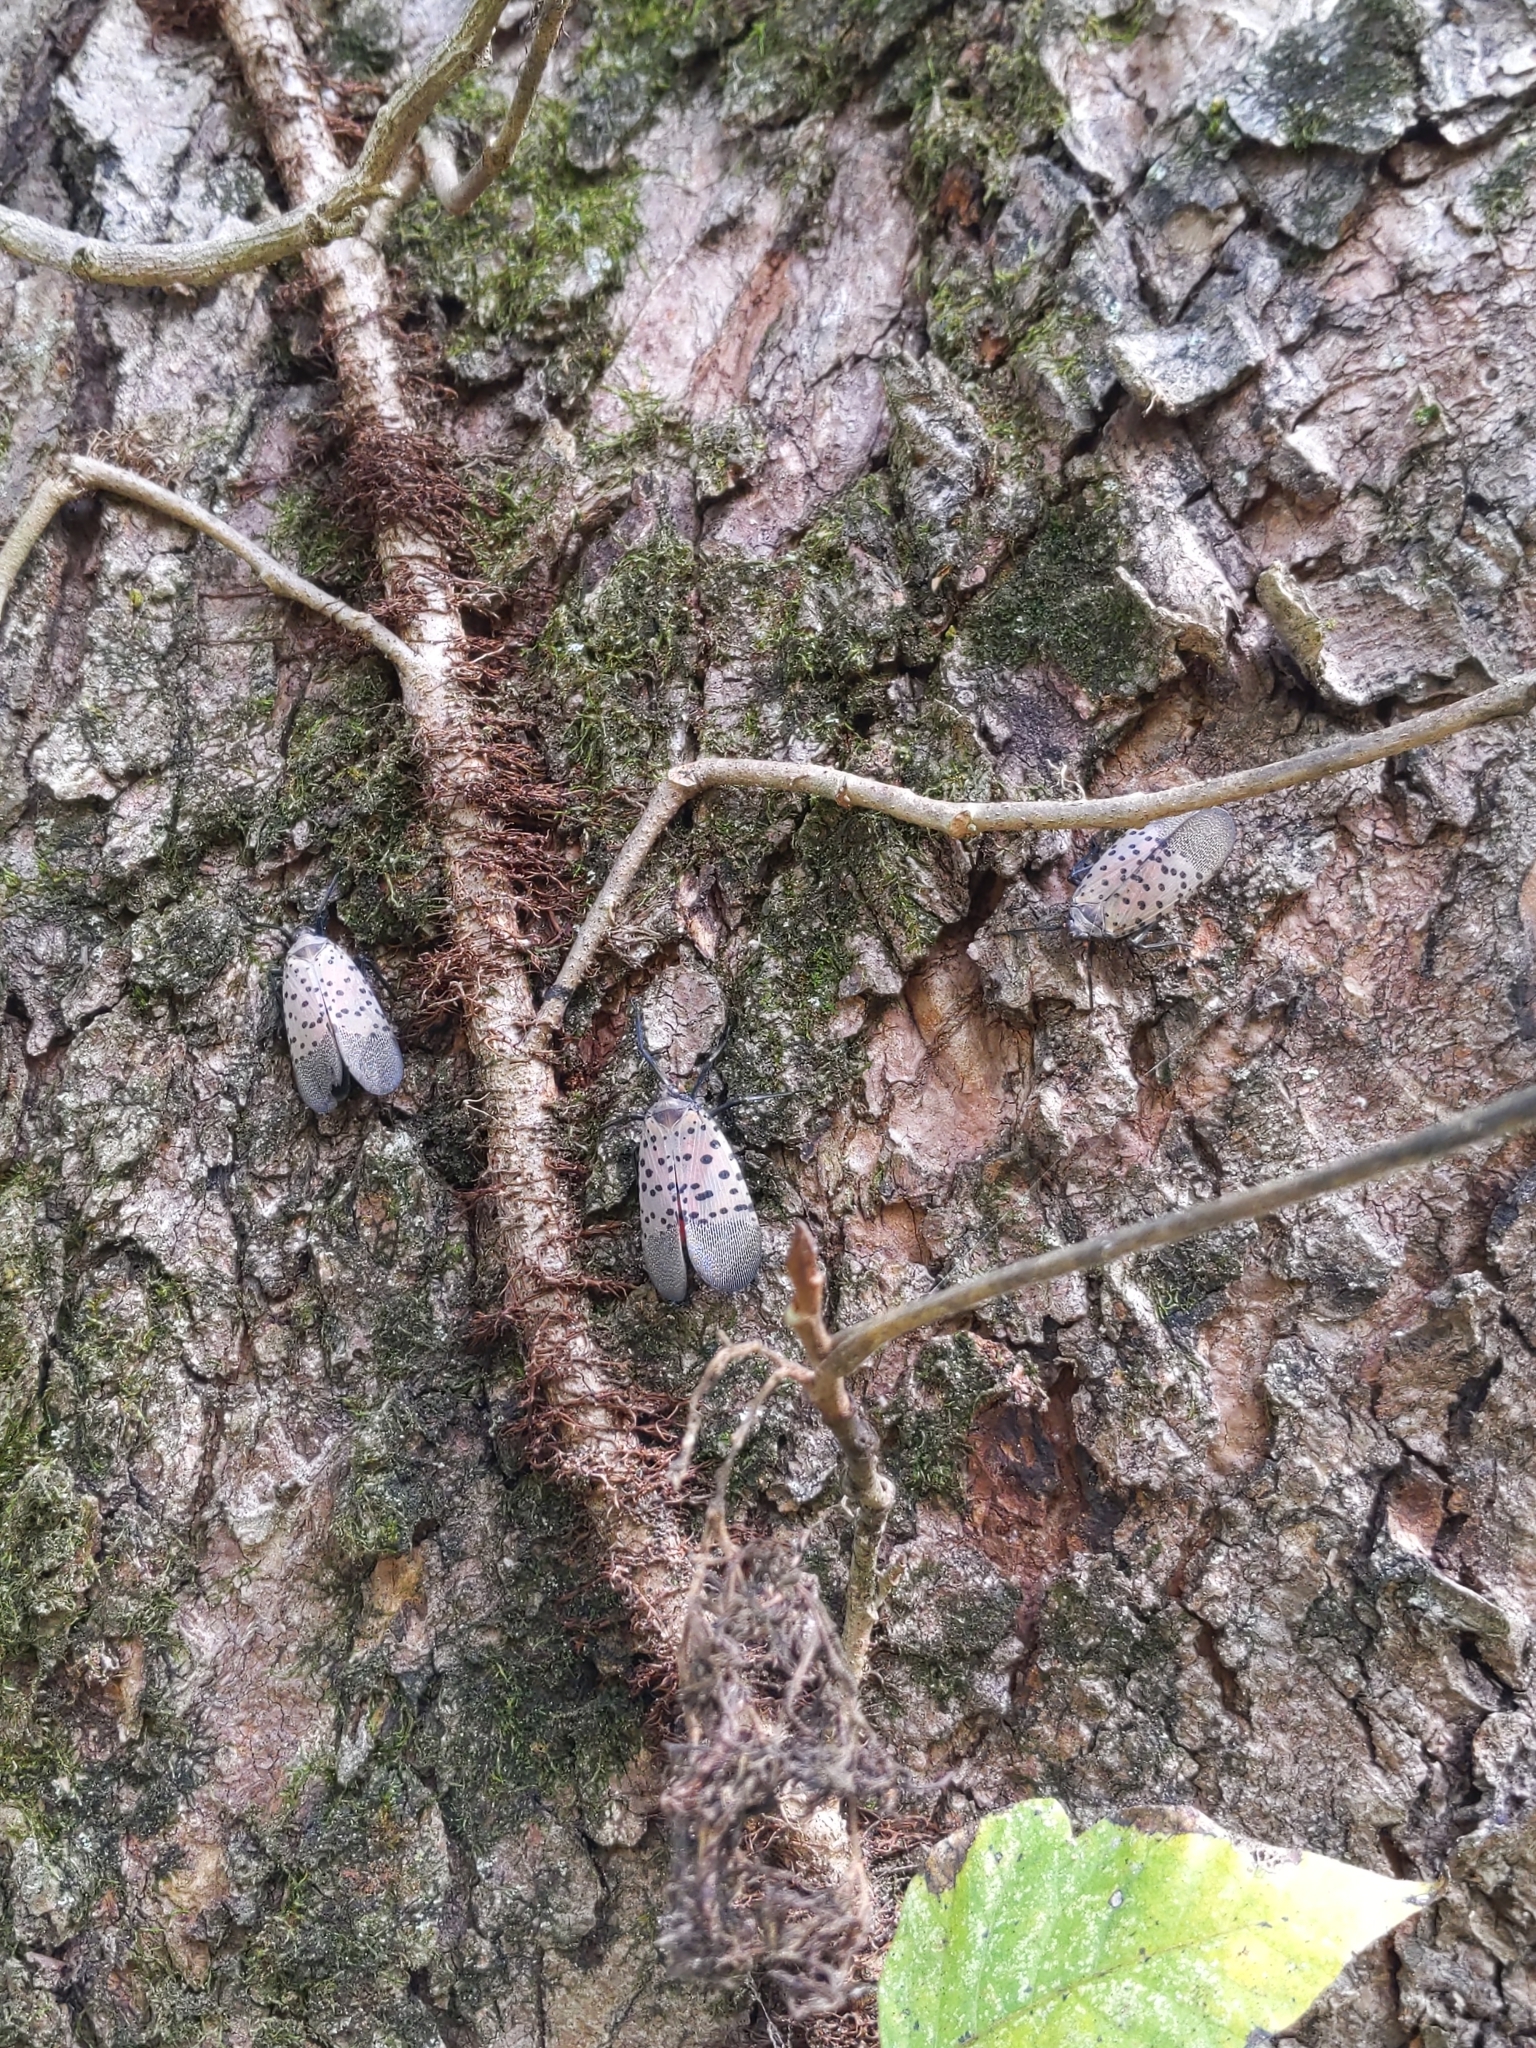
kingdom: Animalia
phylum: Arthropoda
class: Insecta
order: Hemiptera
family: Fulgoridae
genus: Lycorma
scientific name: Lycorma delicatula
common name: Spotted lanternfly
